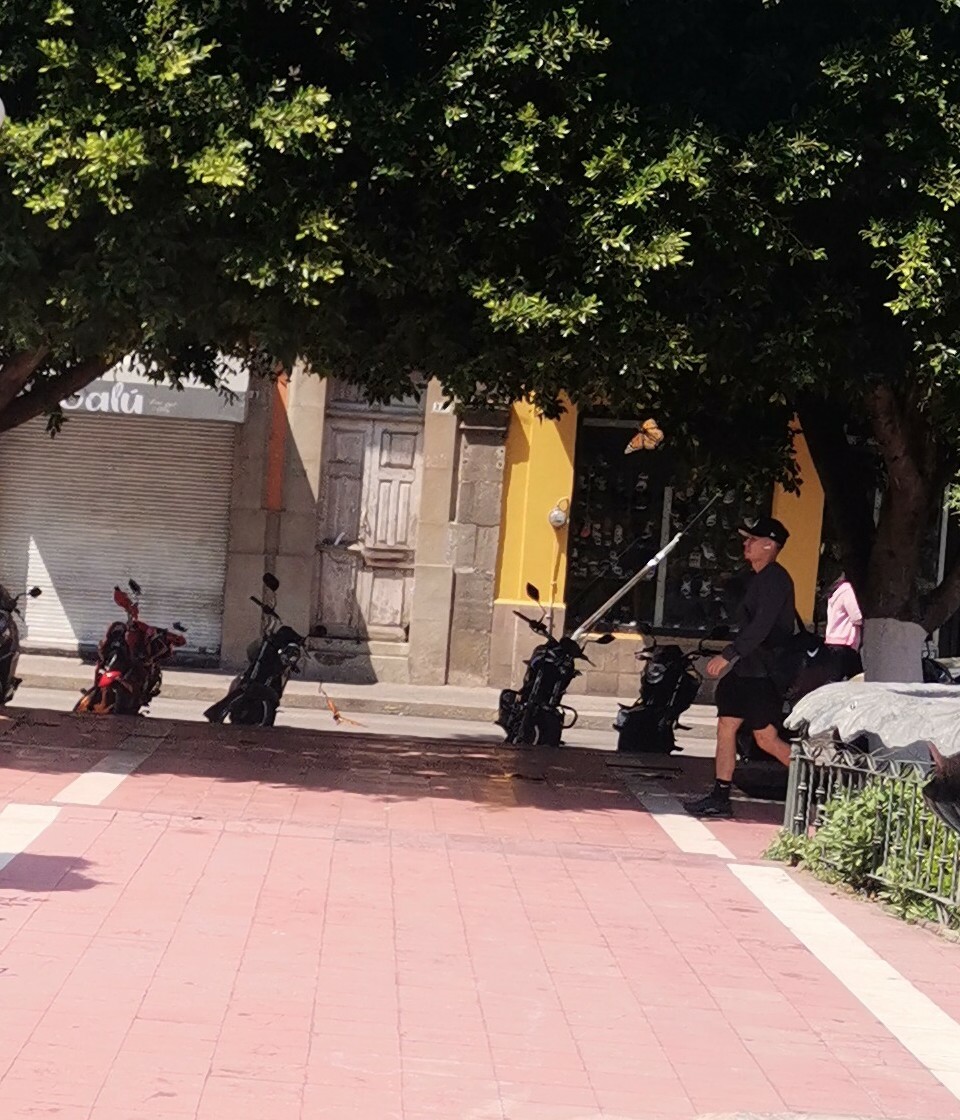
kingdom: Animalia
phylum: Arthropoda
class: Insecta
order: Lepidoptera
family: Nymphalidae
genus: Danaus
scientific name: Danaus plexippus
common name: Monarch
